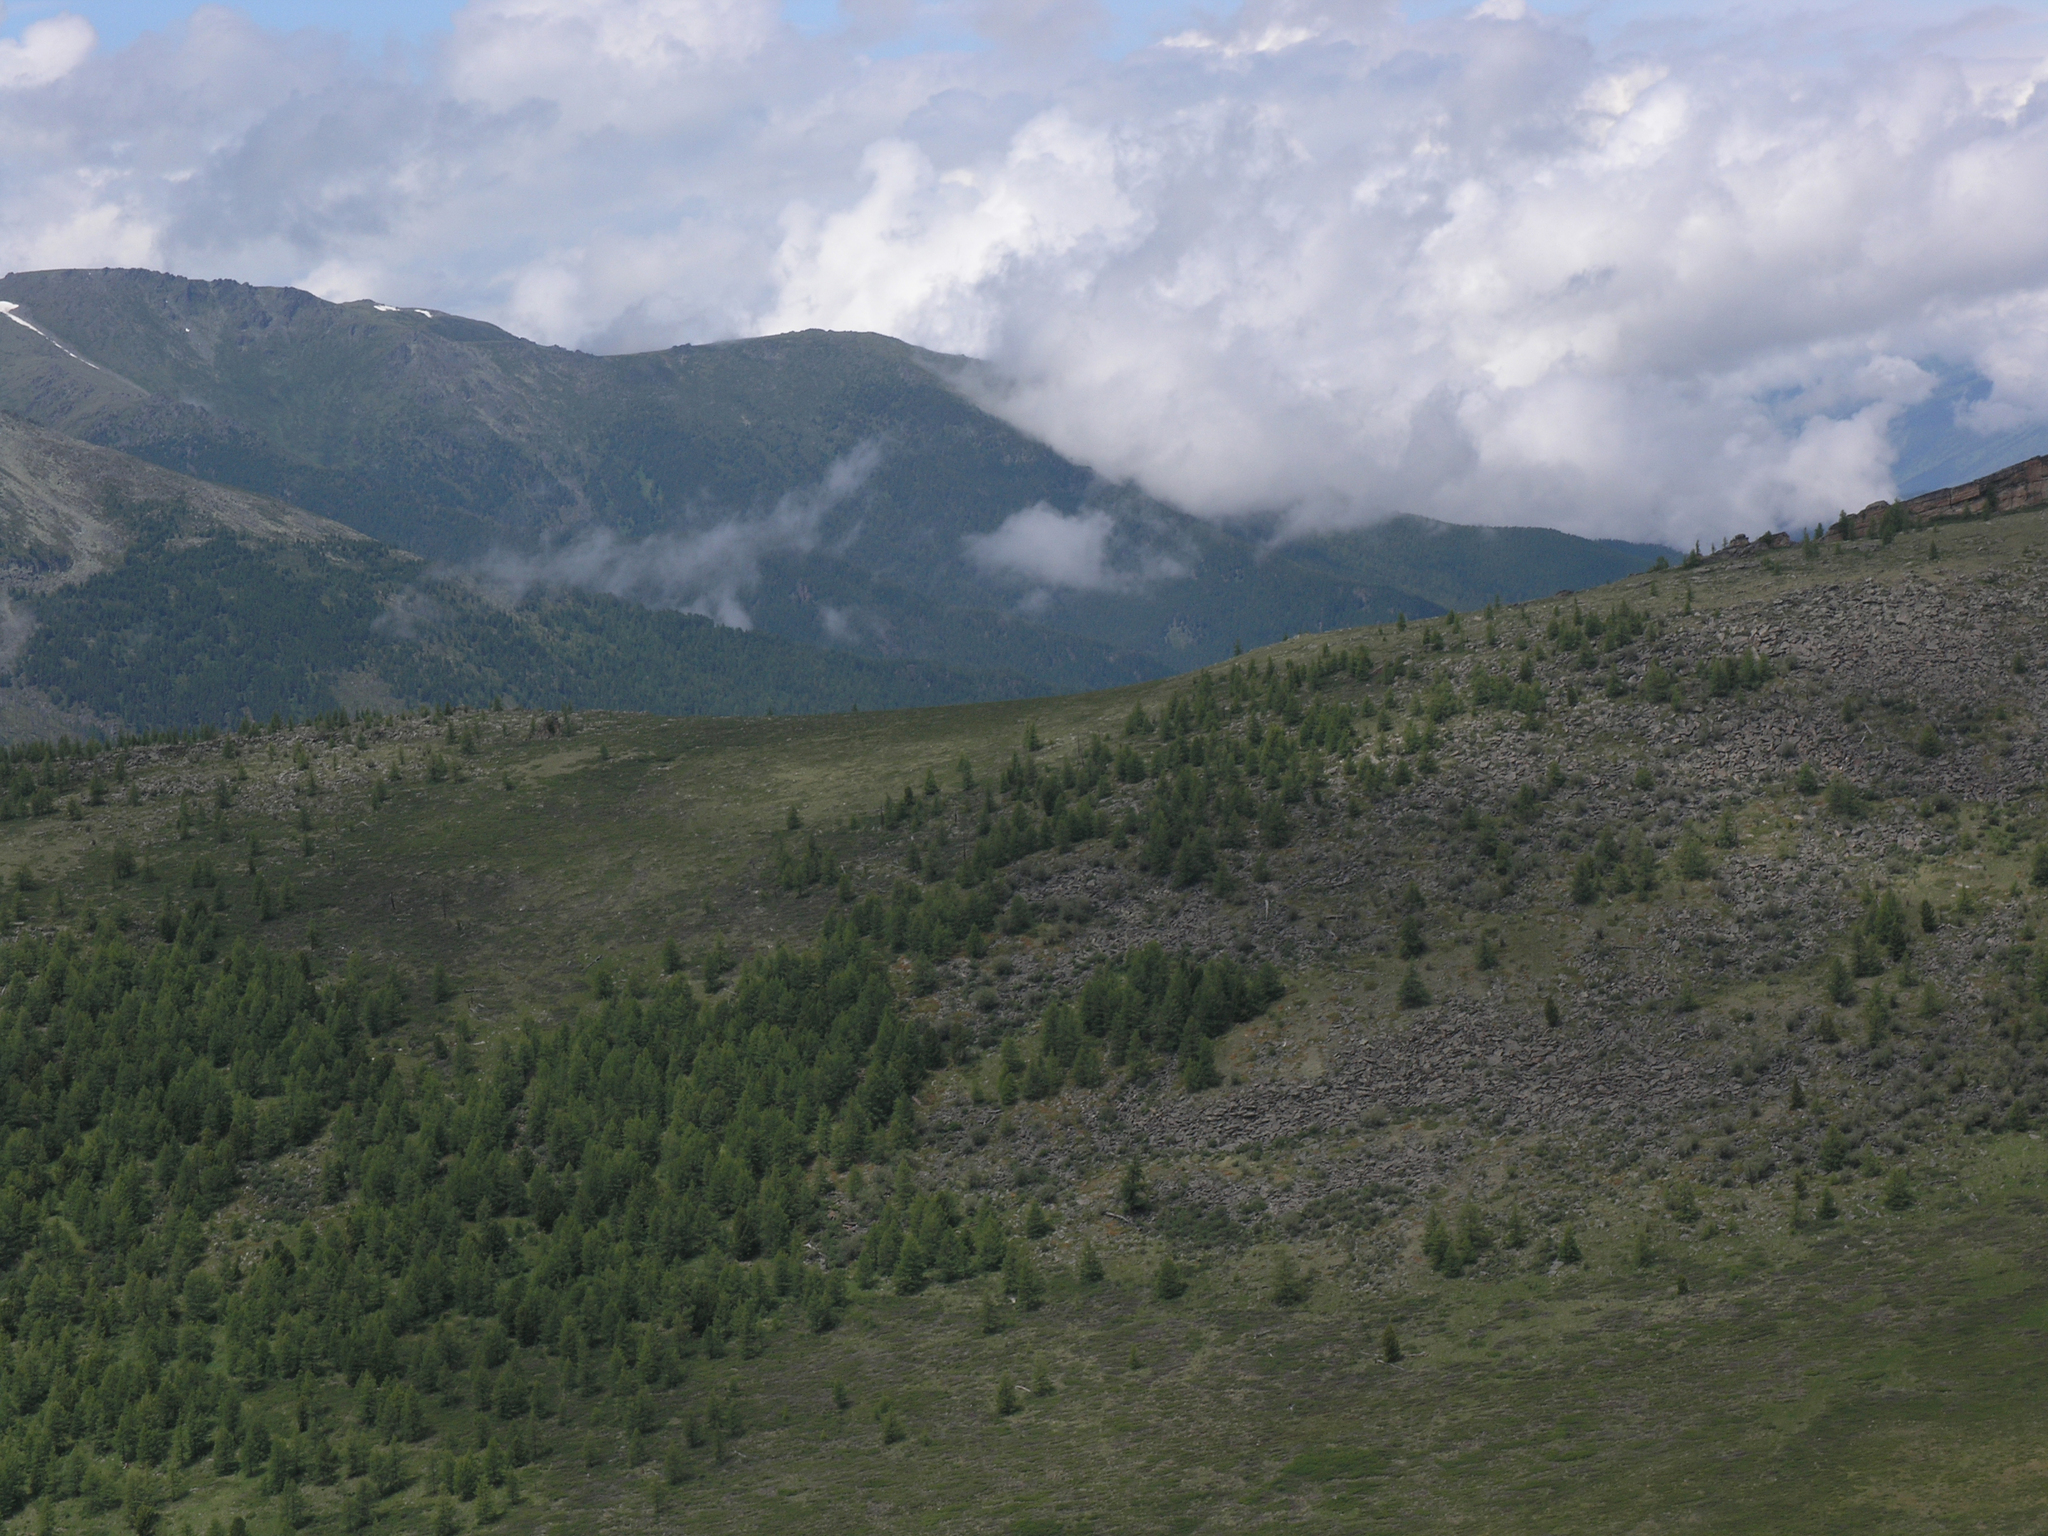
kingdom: Plantae
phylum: Tracheophyta
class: Pinopsida
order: Pinales
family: Pinaceae
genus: Larix
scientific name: Larix sibirica
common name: Siberian larch
